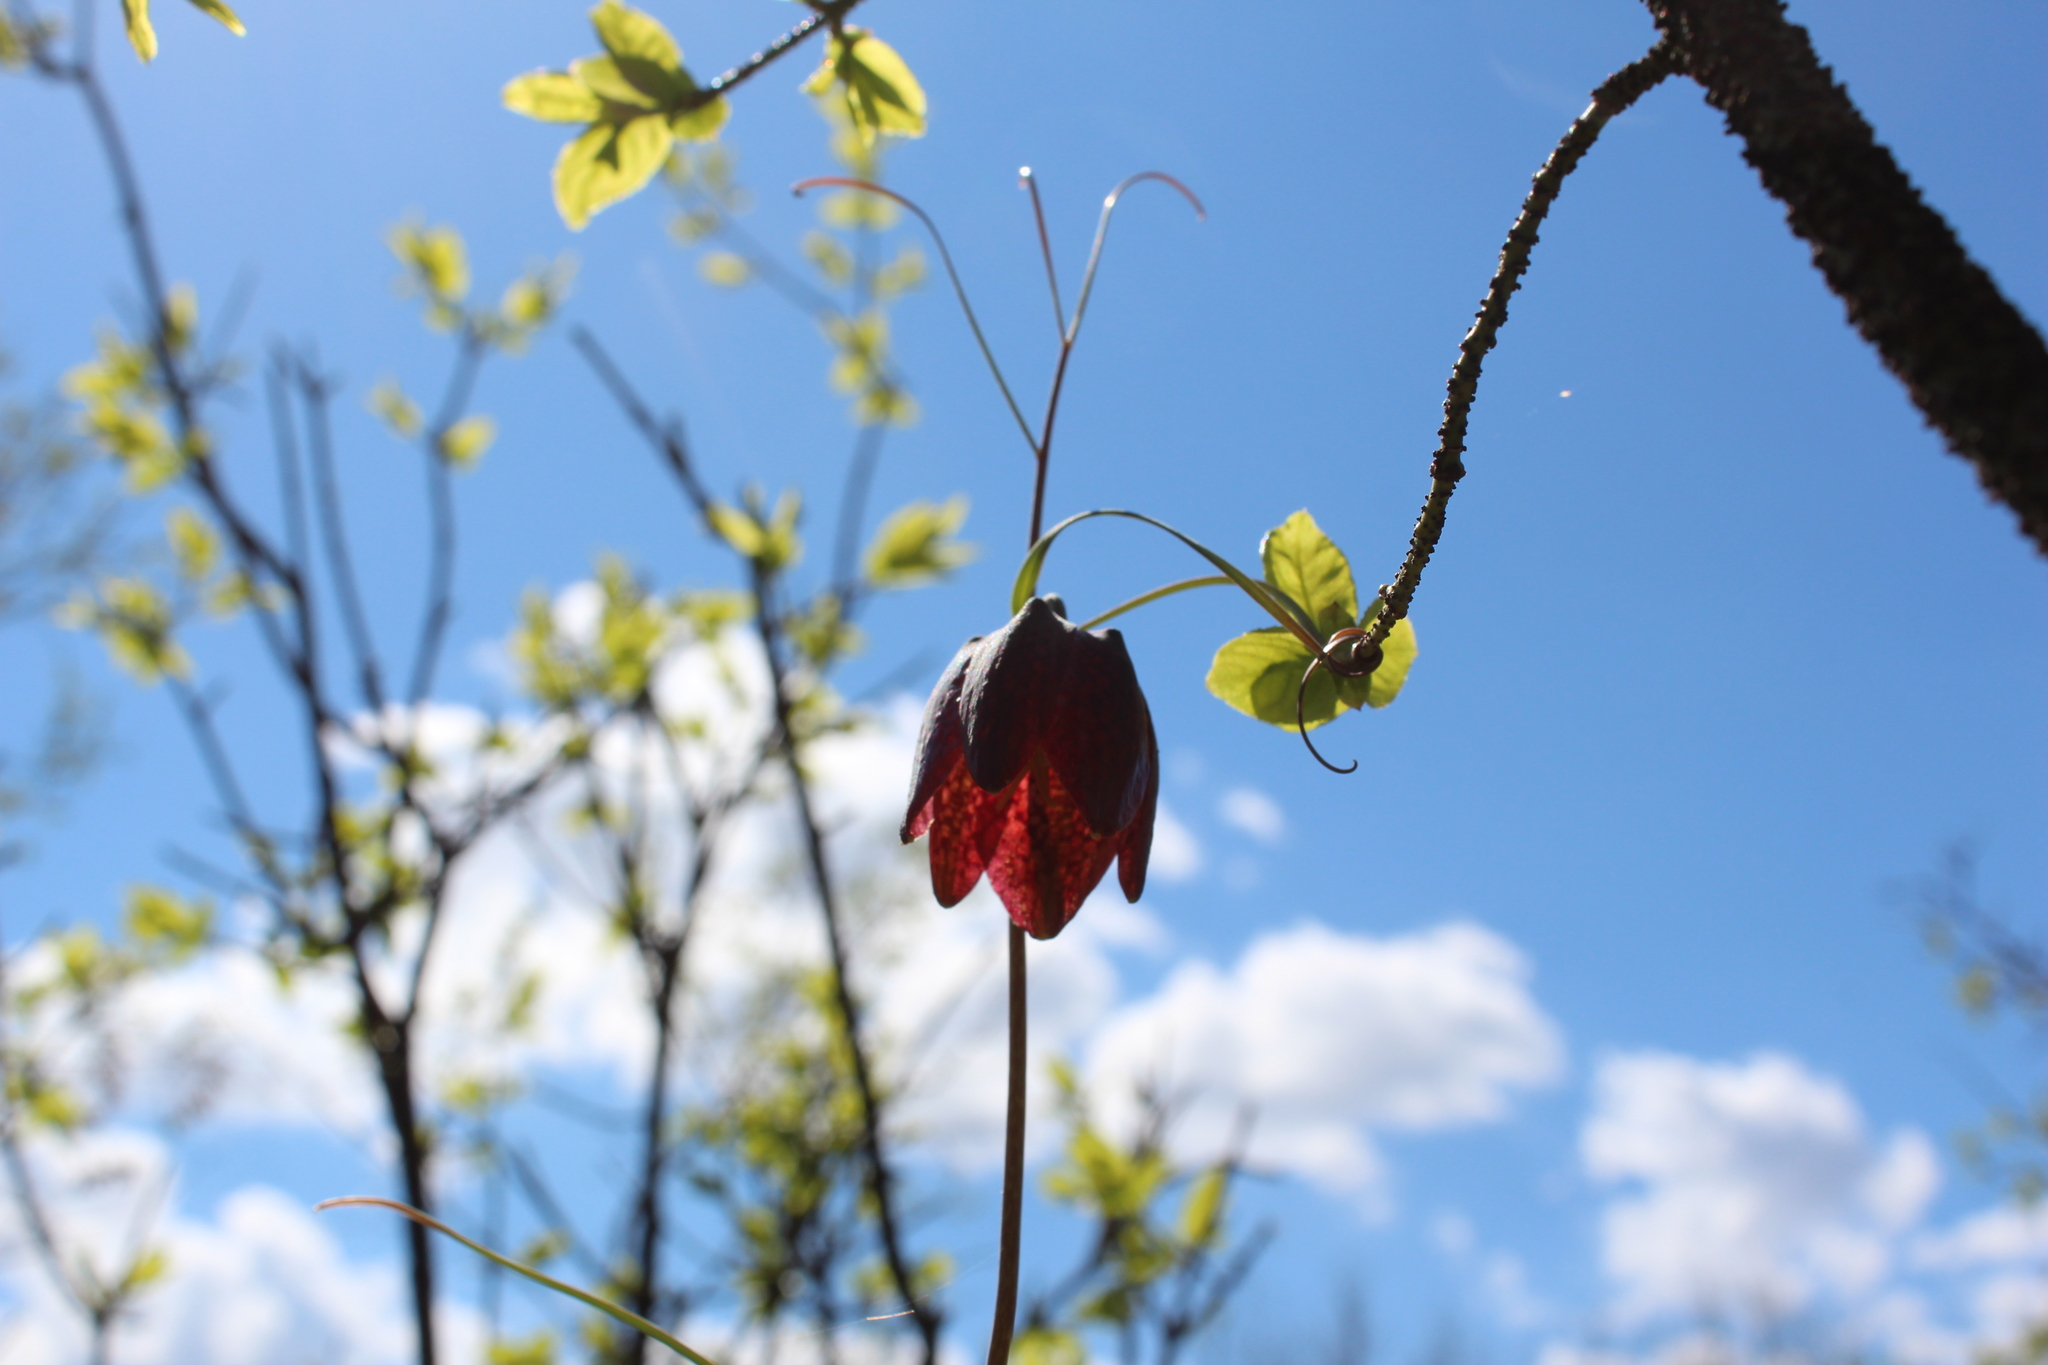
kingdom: Plantae
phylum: Tracheophyta
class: Liliopsida
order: Liliales
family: Liliaceae
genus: Fritillaria
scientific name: Fritillaria ruthenica
